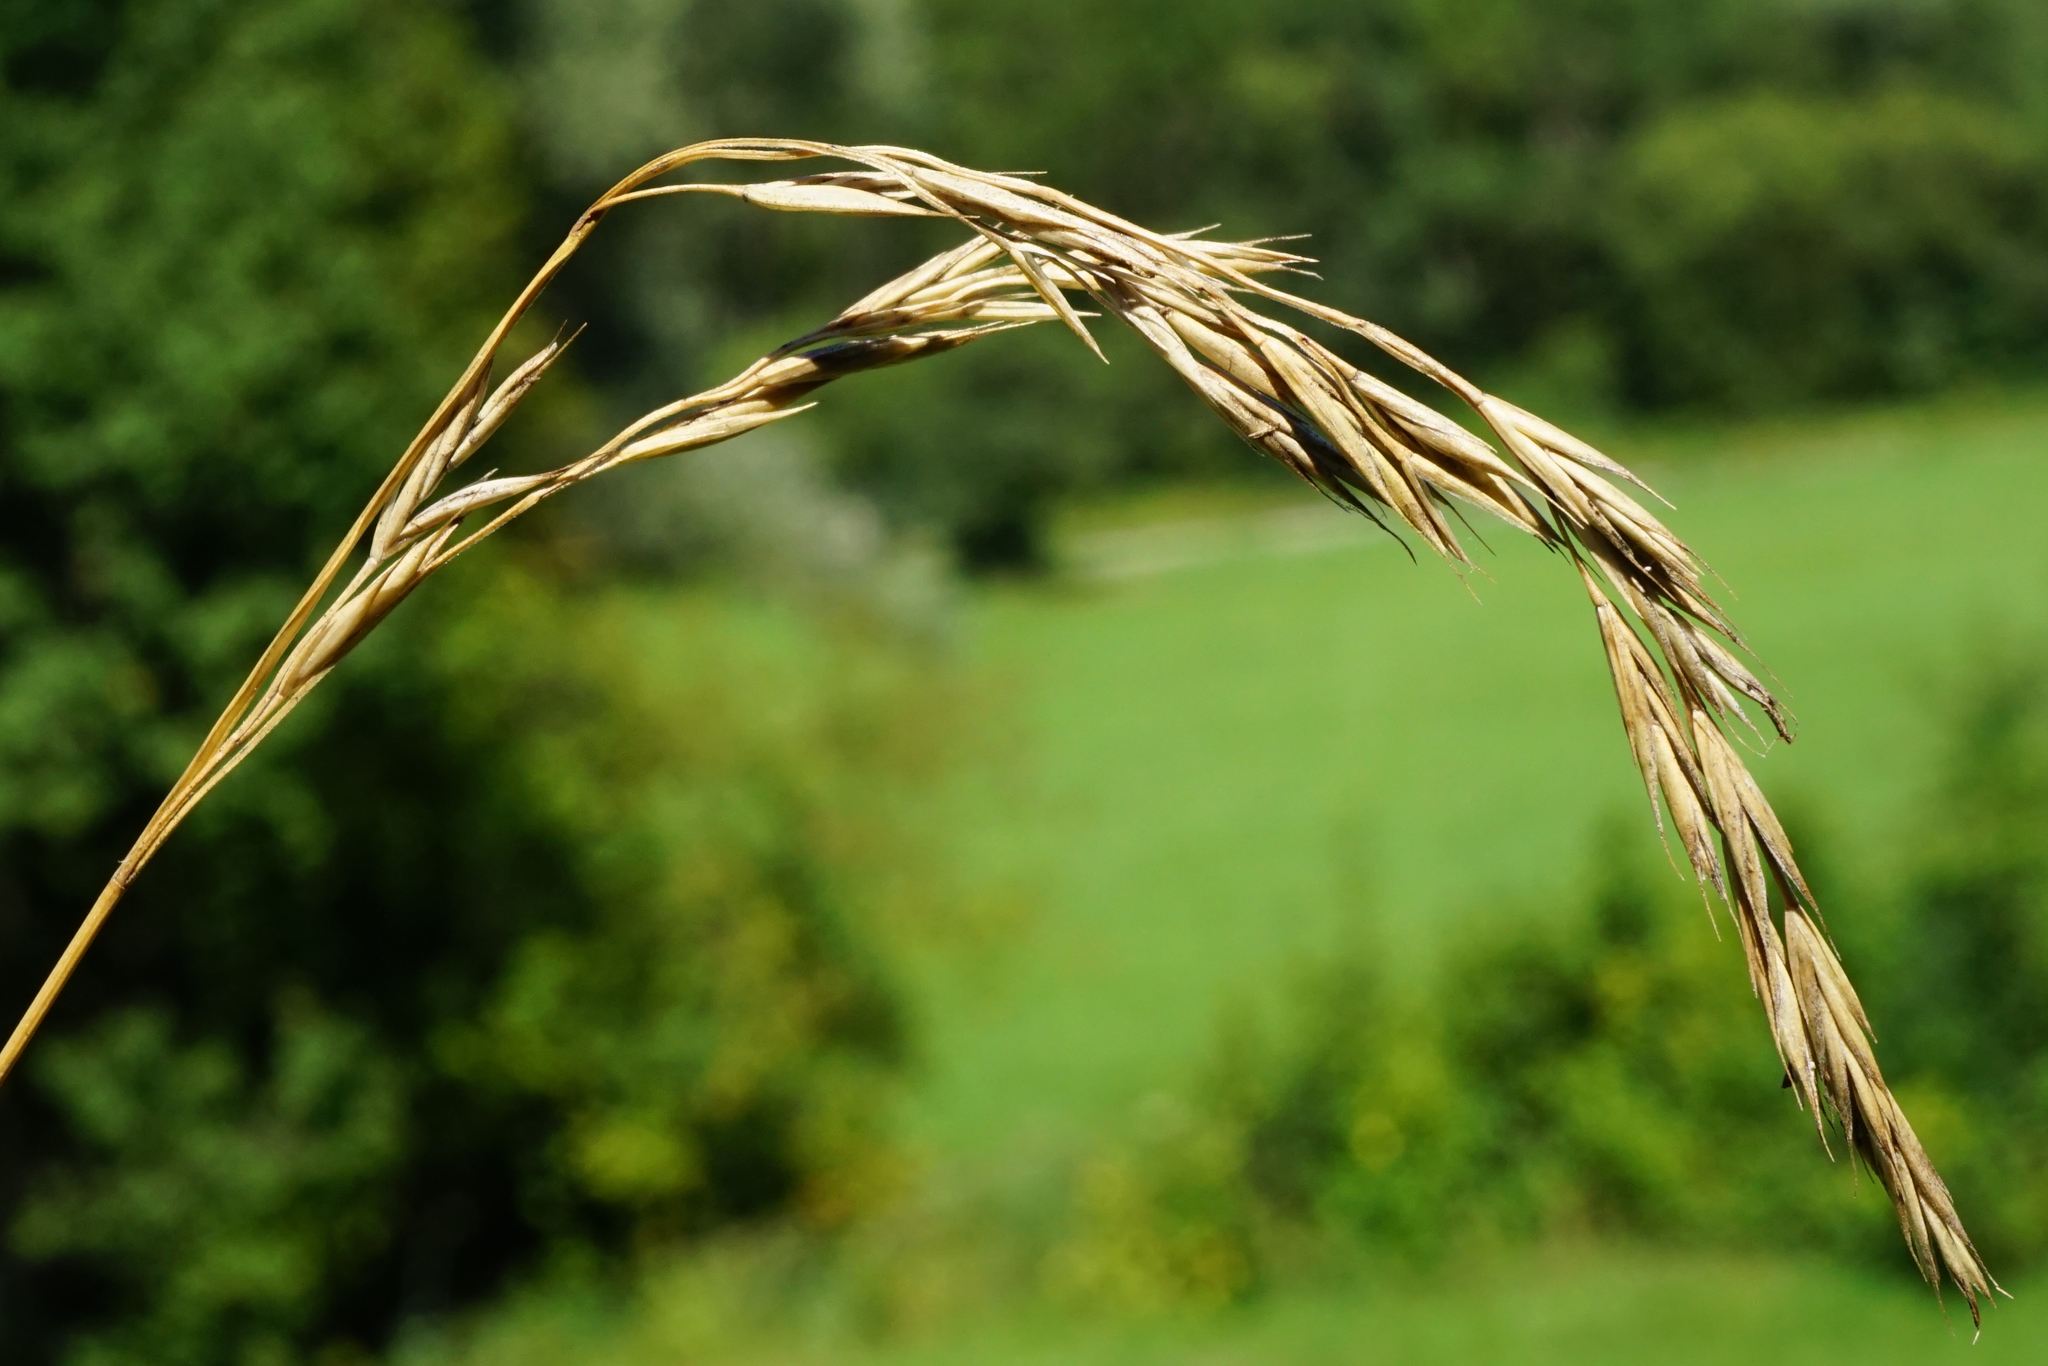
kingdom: Plantae
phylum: Tracheophyta
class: Liliopsida
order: Poales
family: Poaceae
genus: Festuca
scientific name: Festuca rubra
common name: Red fescue
